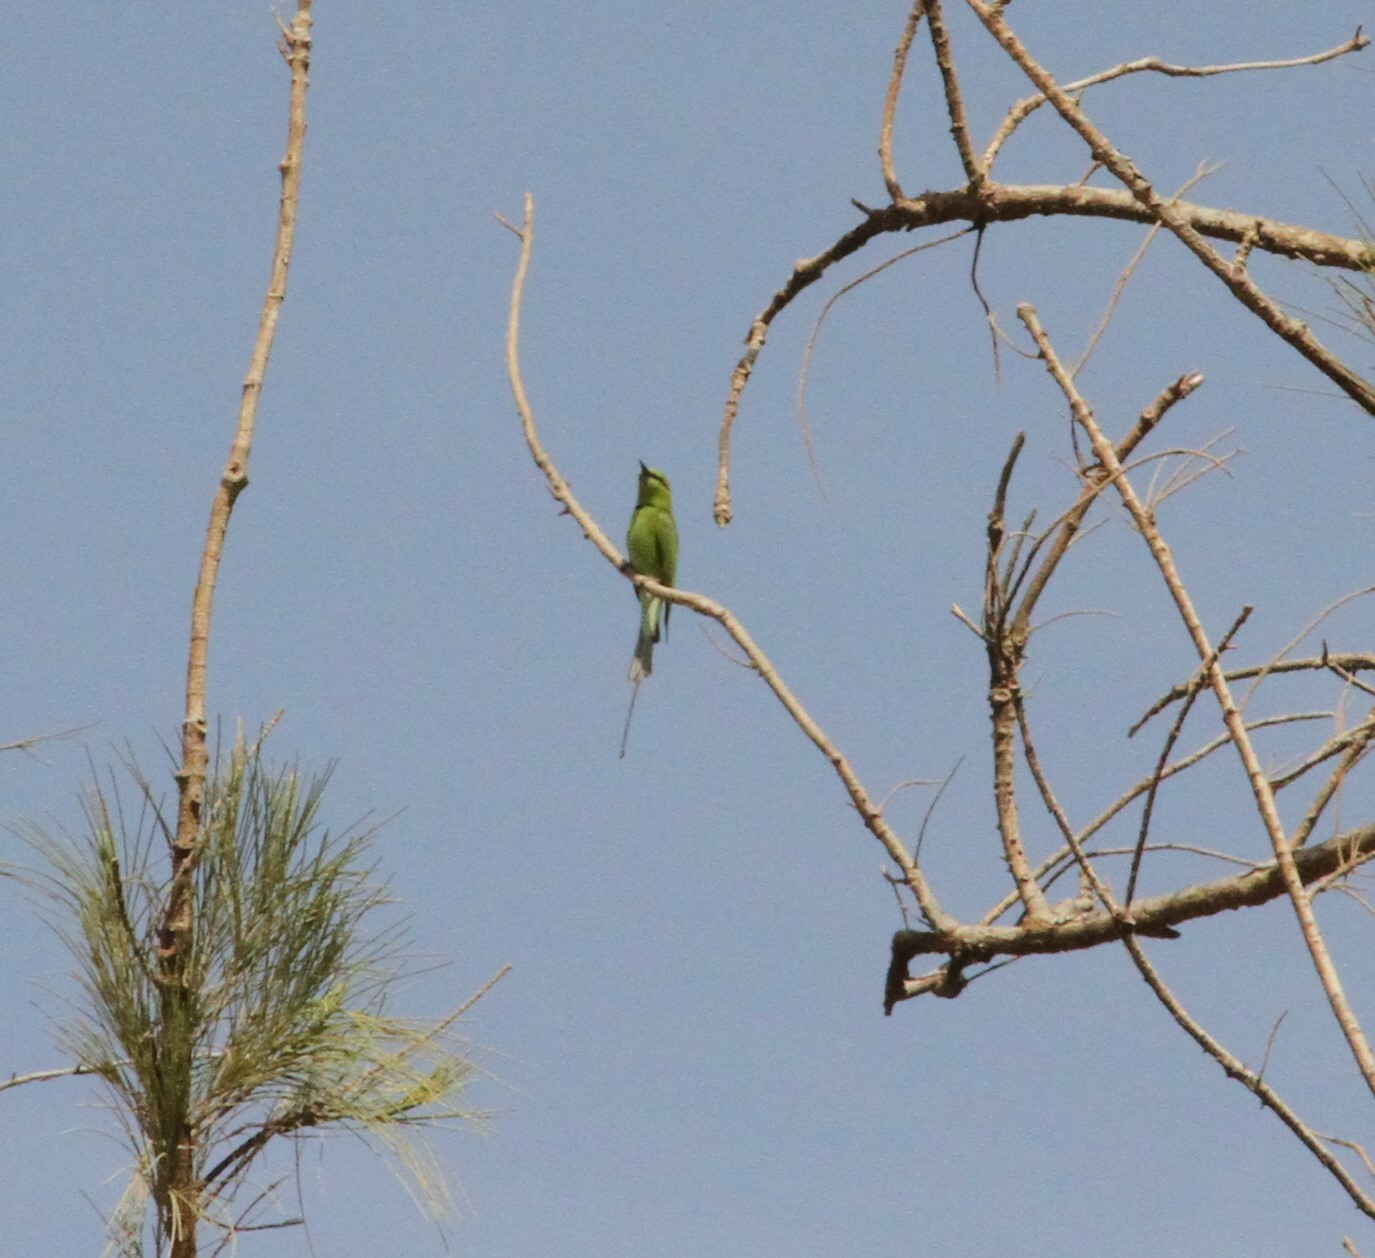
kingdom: Animalia
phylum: Chordata
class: Aves
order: Coraciiformes
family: Meropidae
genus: Merops
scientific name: Merops viridissimus
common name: African green bee-eater
